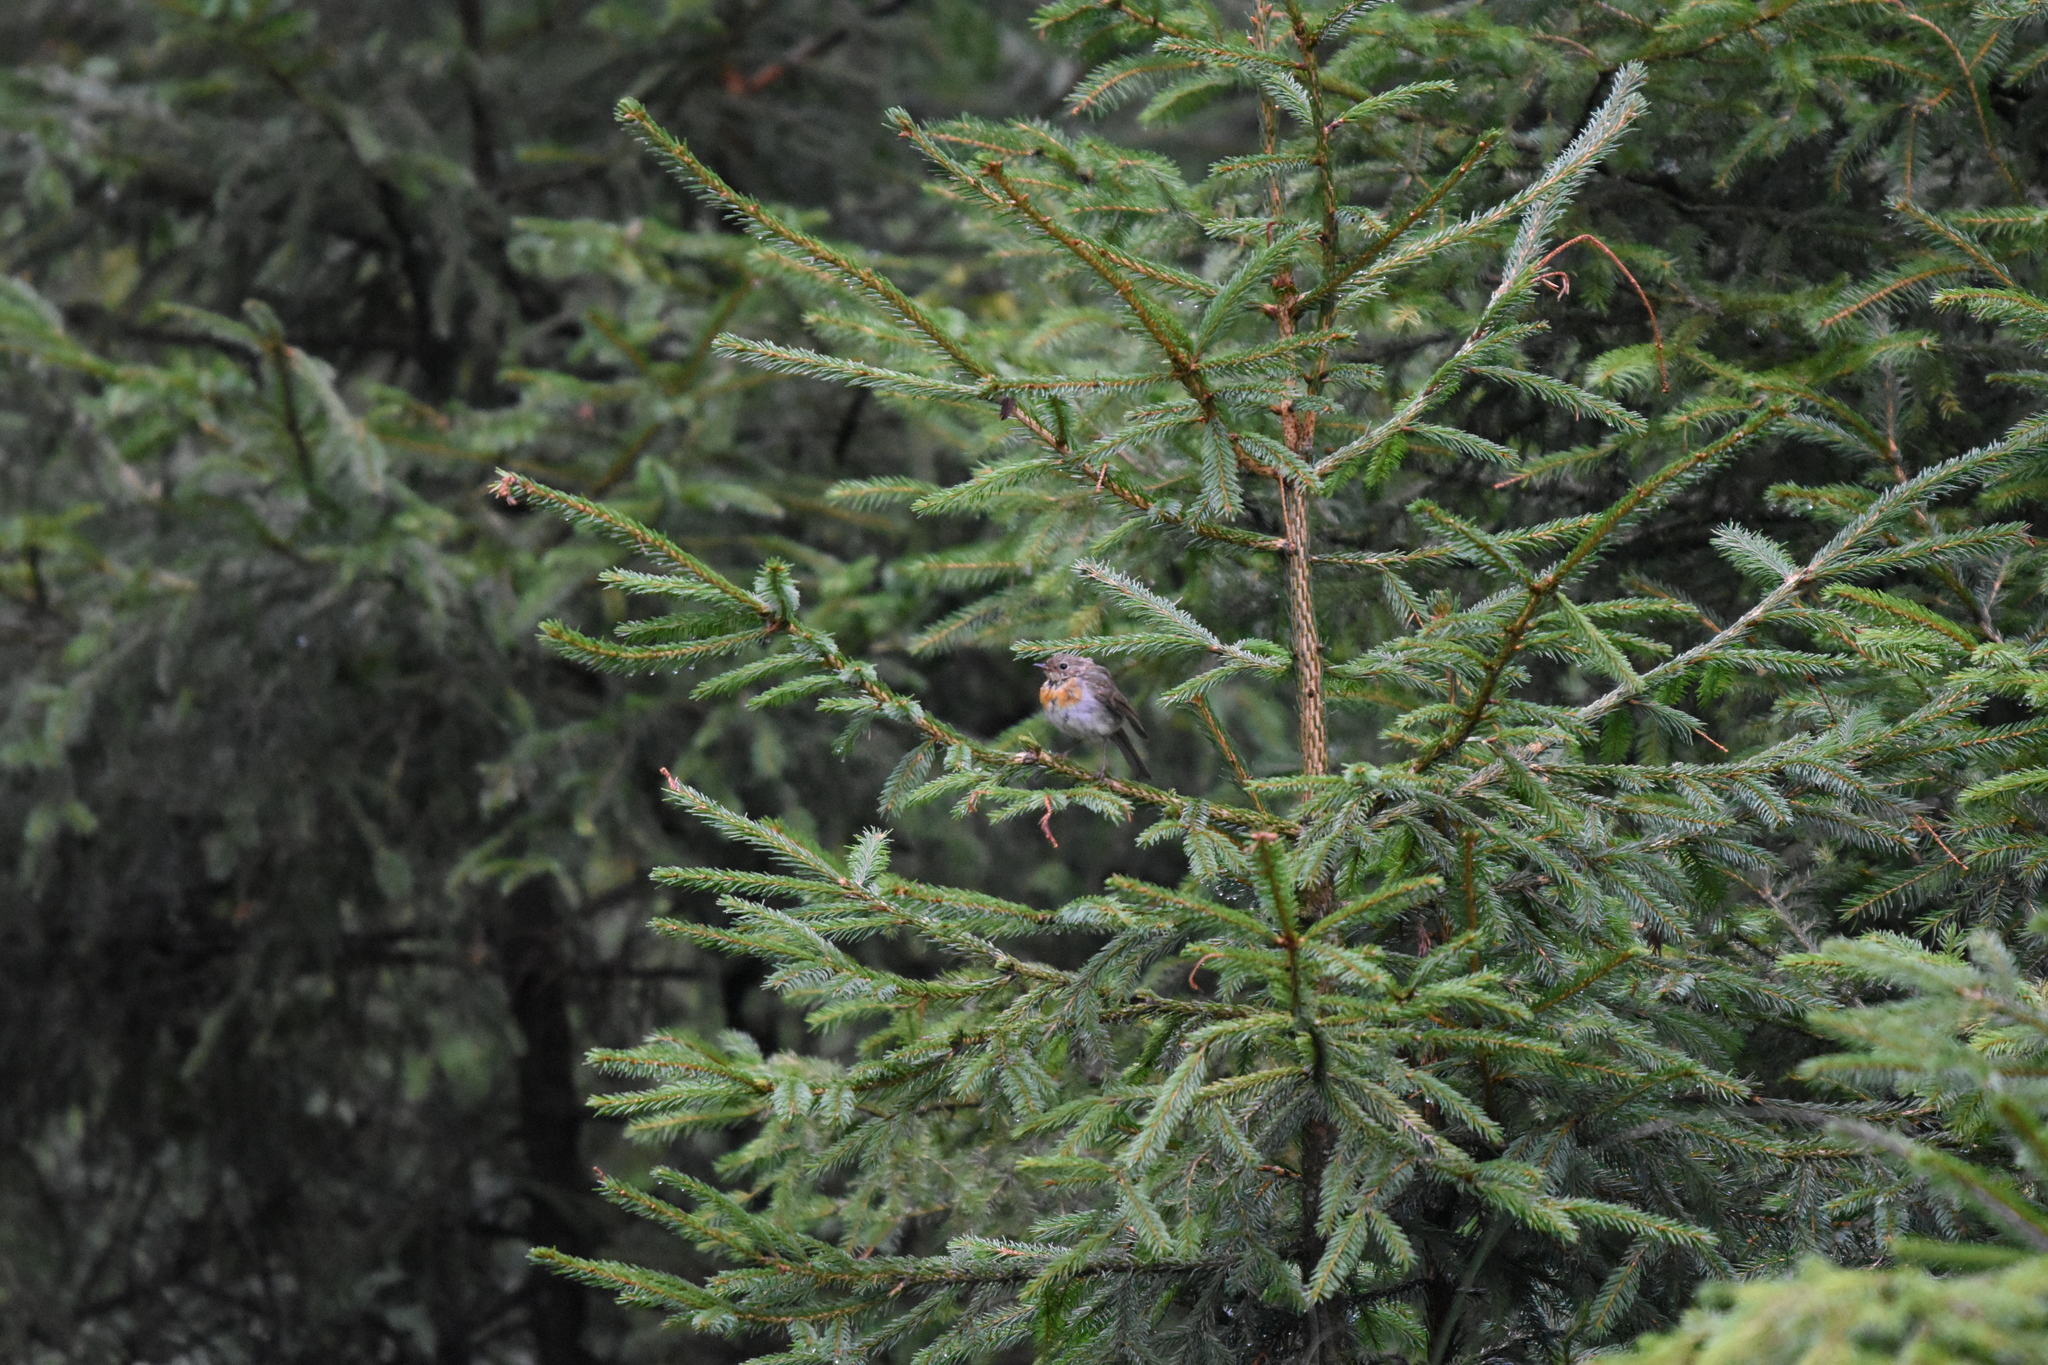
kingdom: Animalia
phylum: Chordata
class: Aves
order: Passeriformes
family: Muscicapidae
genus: Erithacus
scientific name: Erithacus rubecula
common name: European robin
